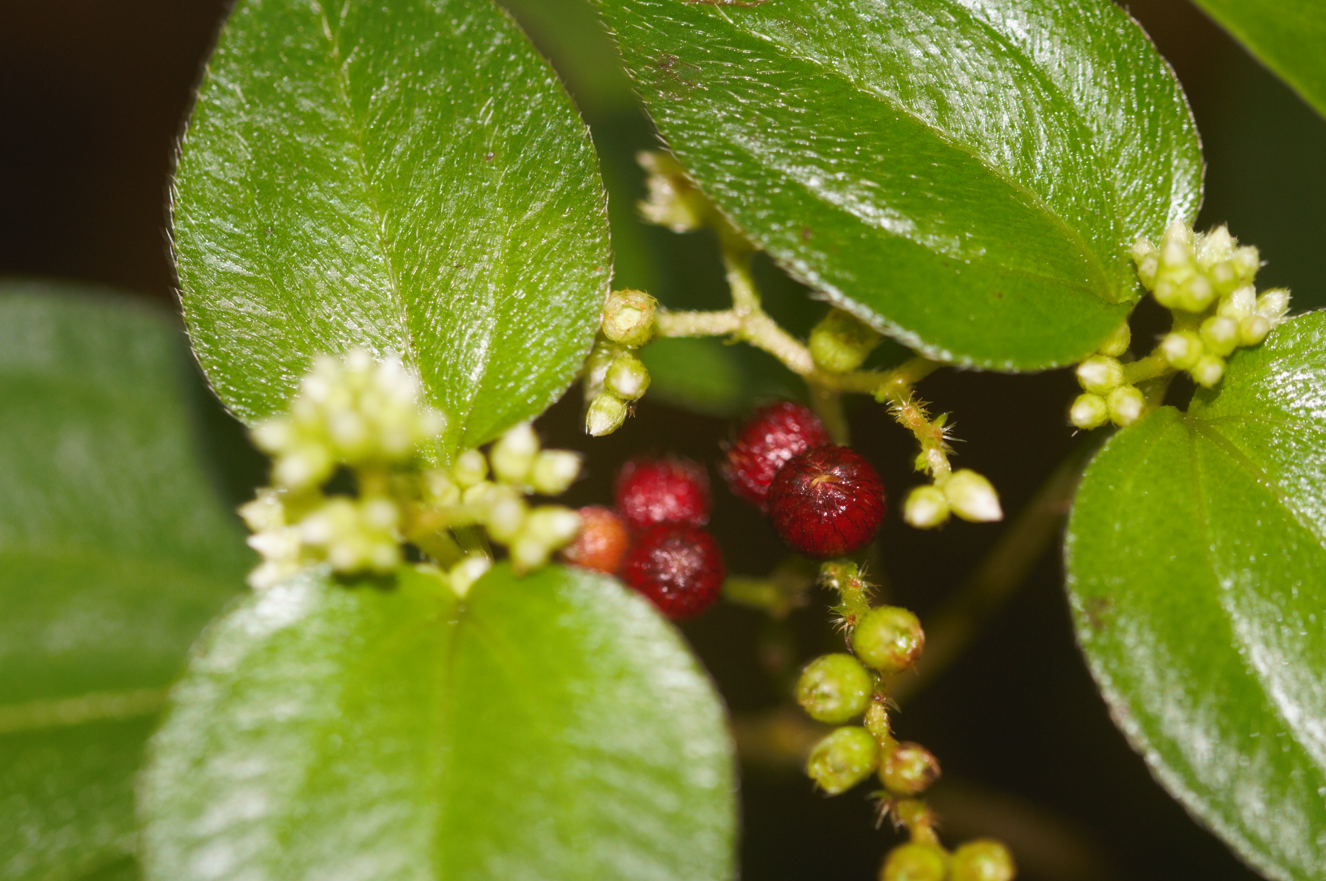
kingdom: Plantae
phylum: Tracheophyta
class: Magnoliopsida
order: Myrtales
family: Melastomataceae
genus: Miconia
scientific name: Miconia secundivaricata
